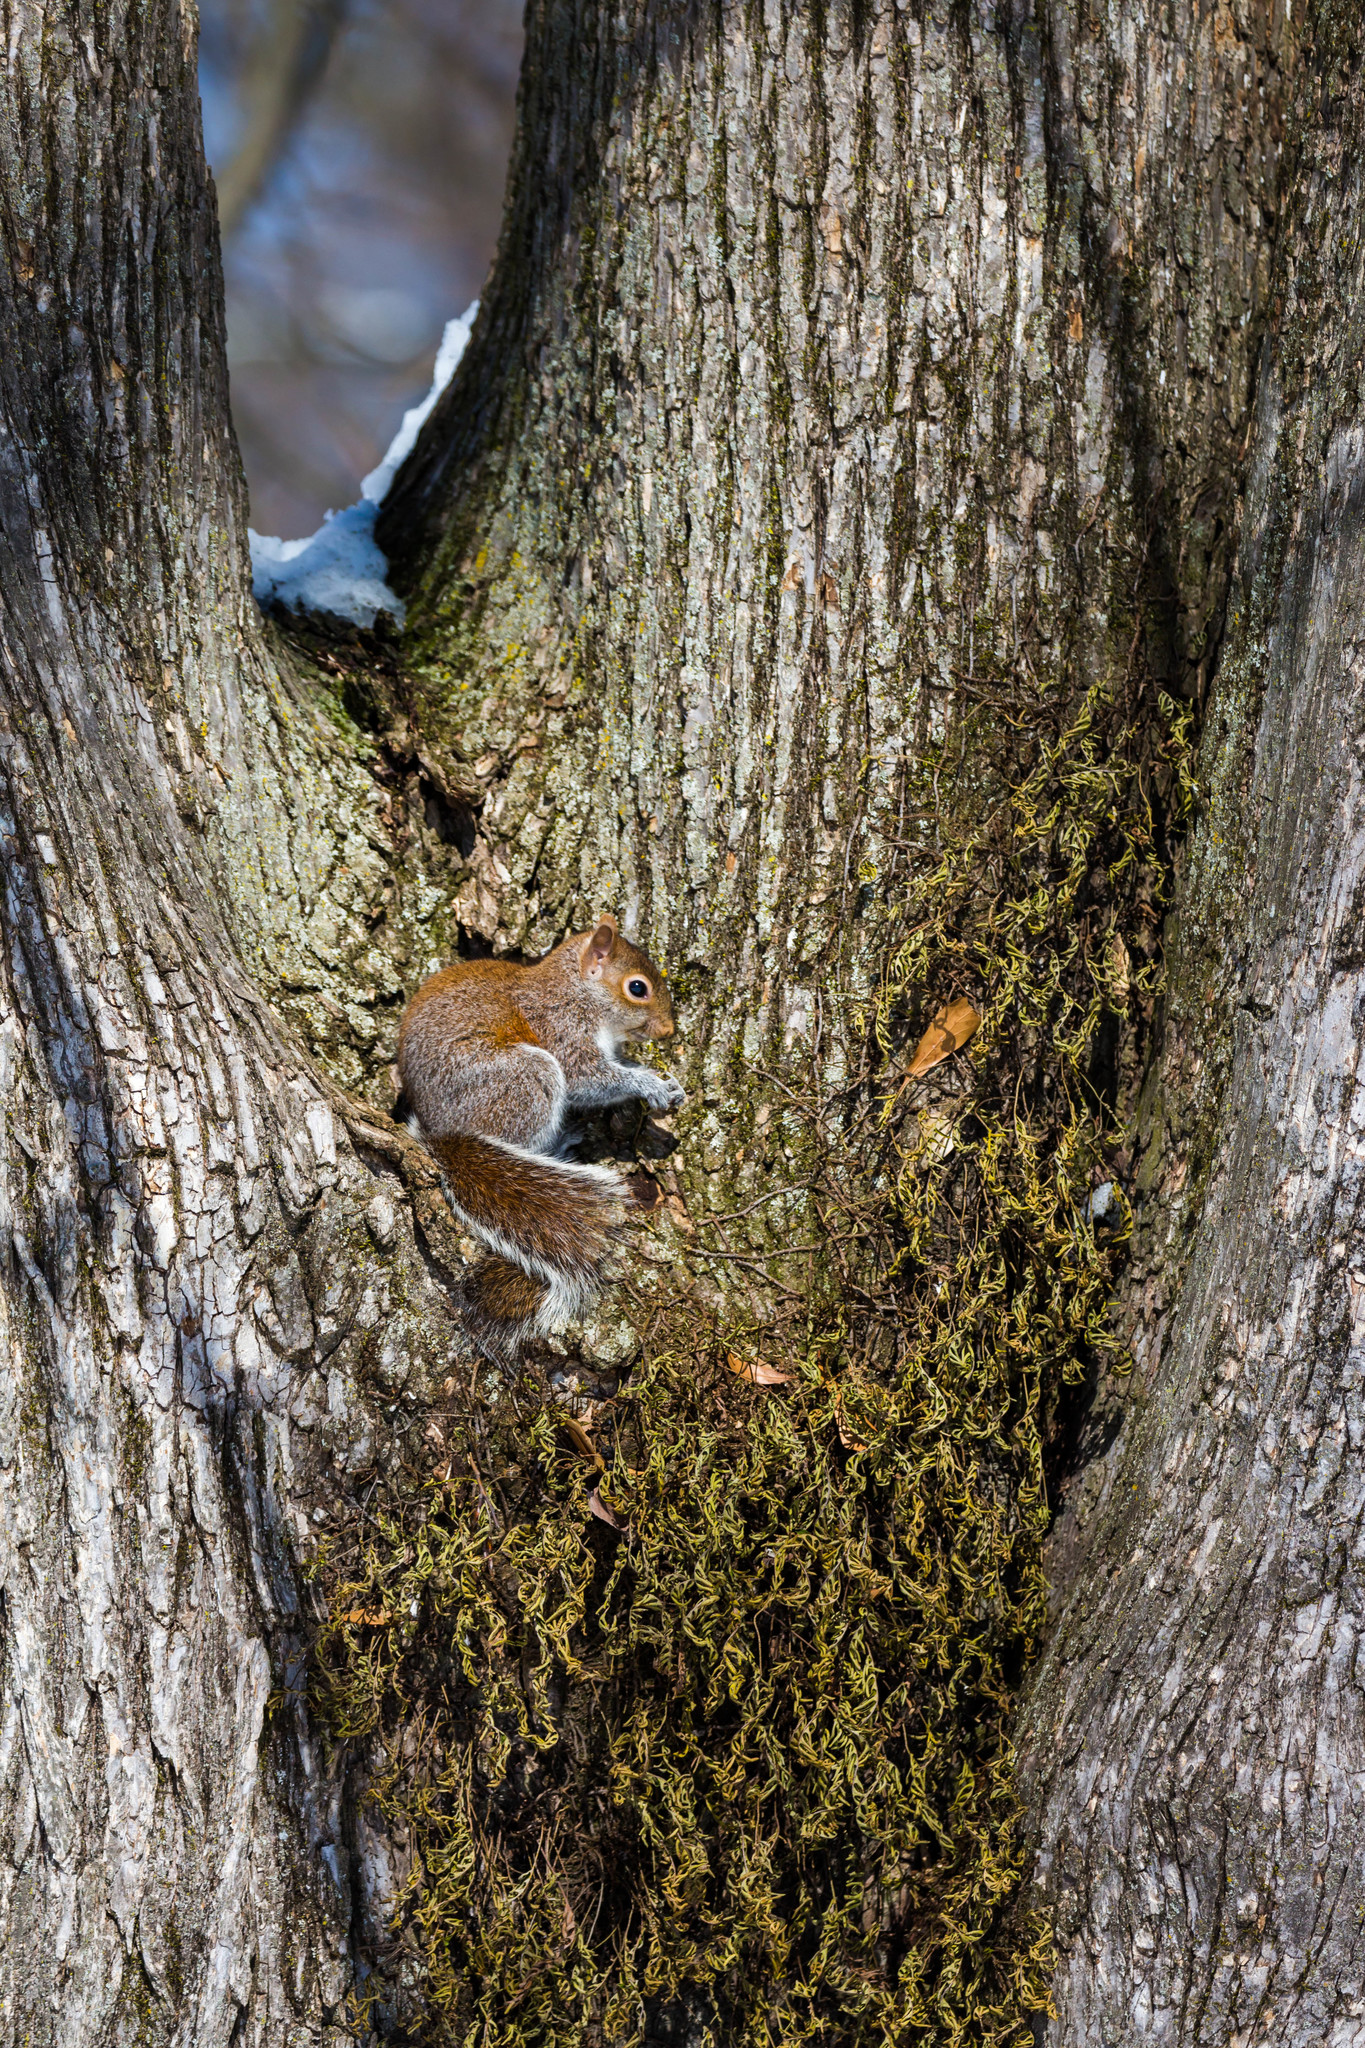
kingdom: Animalia
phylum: Chordata
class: Mammalia
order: Rodentia
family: Sciuridae
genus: Sciurus
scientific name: Sciurus carolinensis
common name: Eastern gray squirrel
